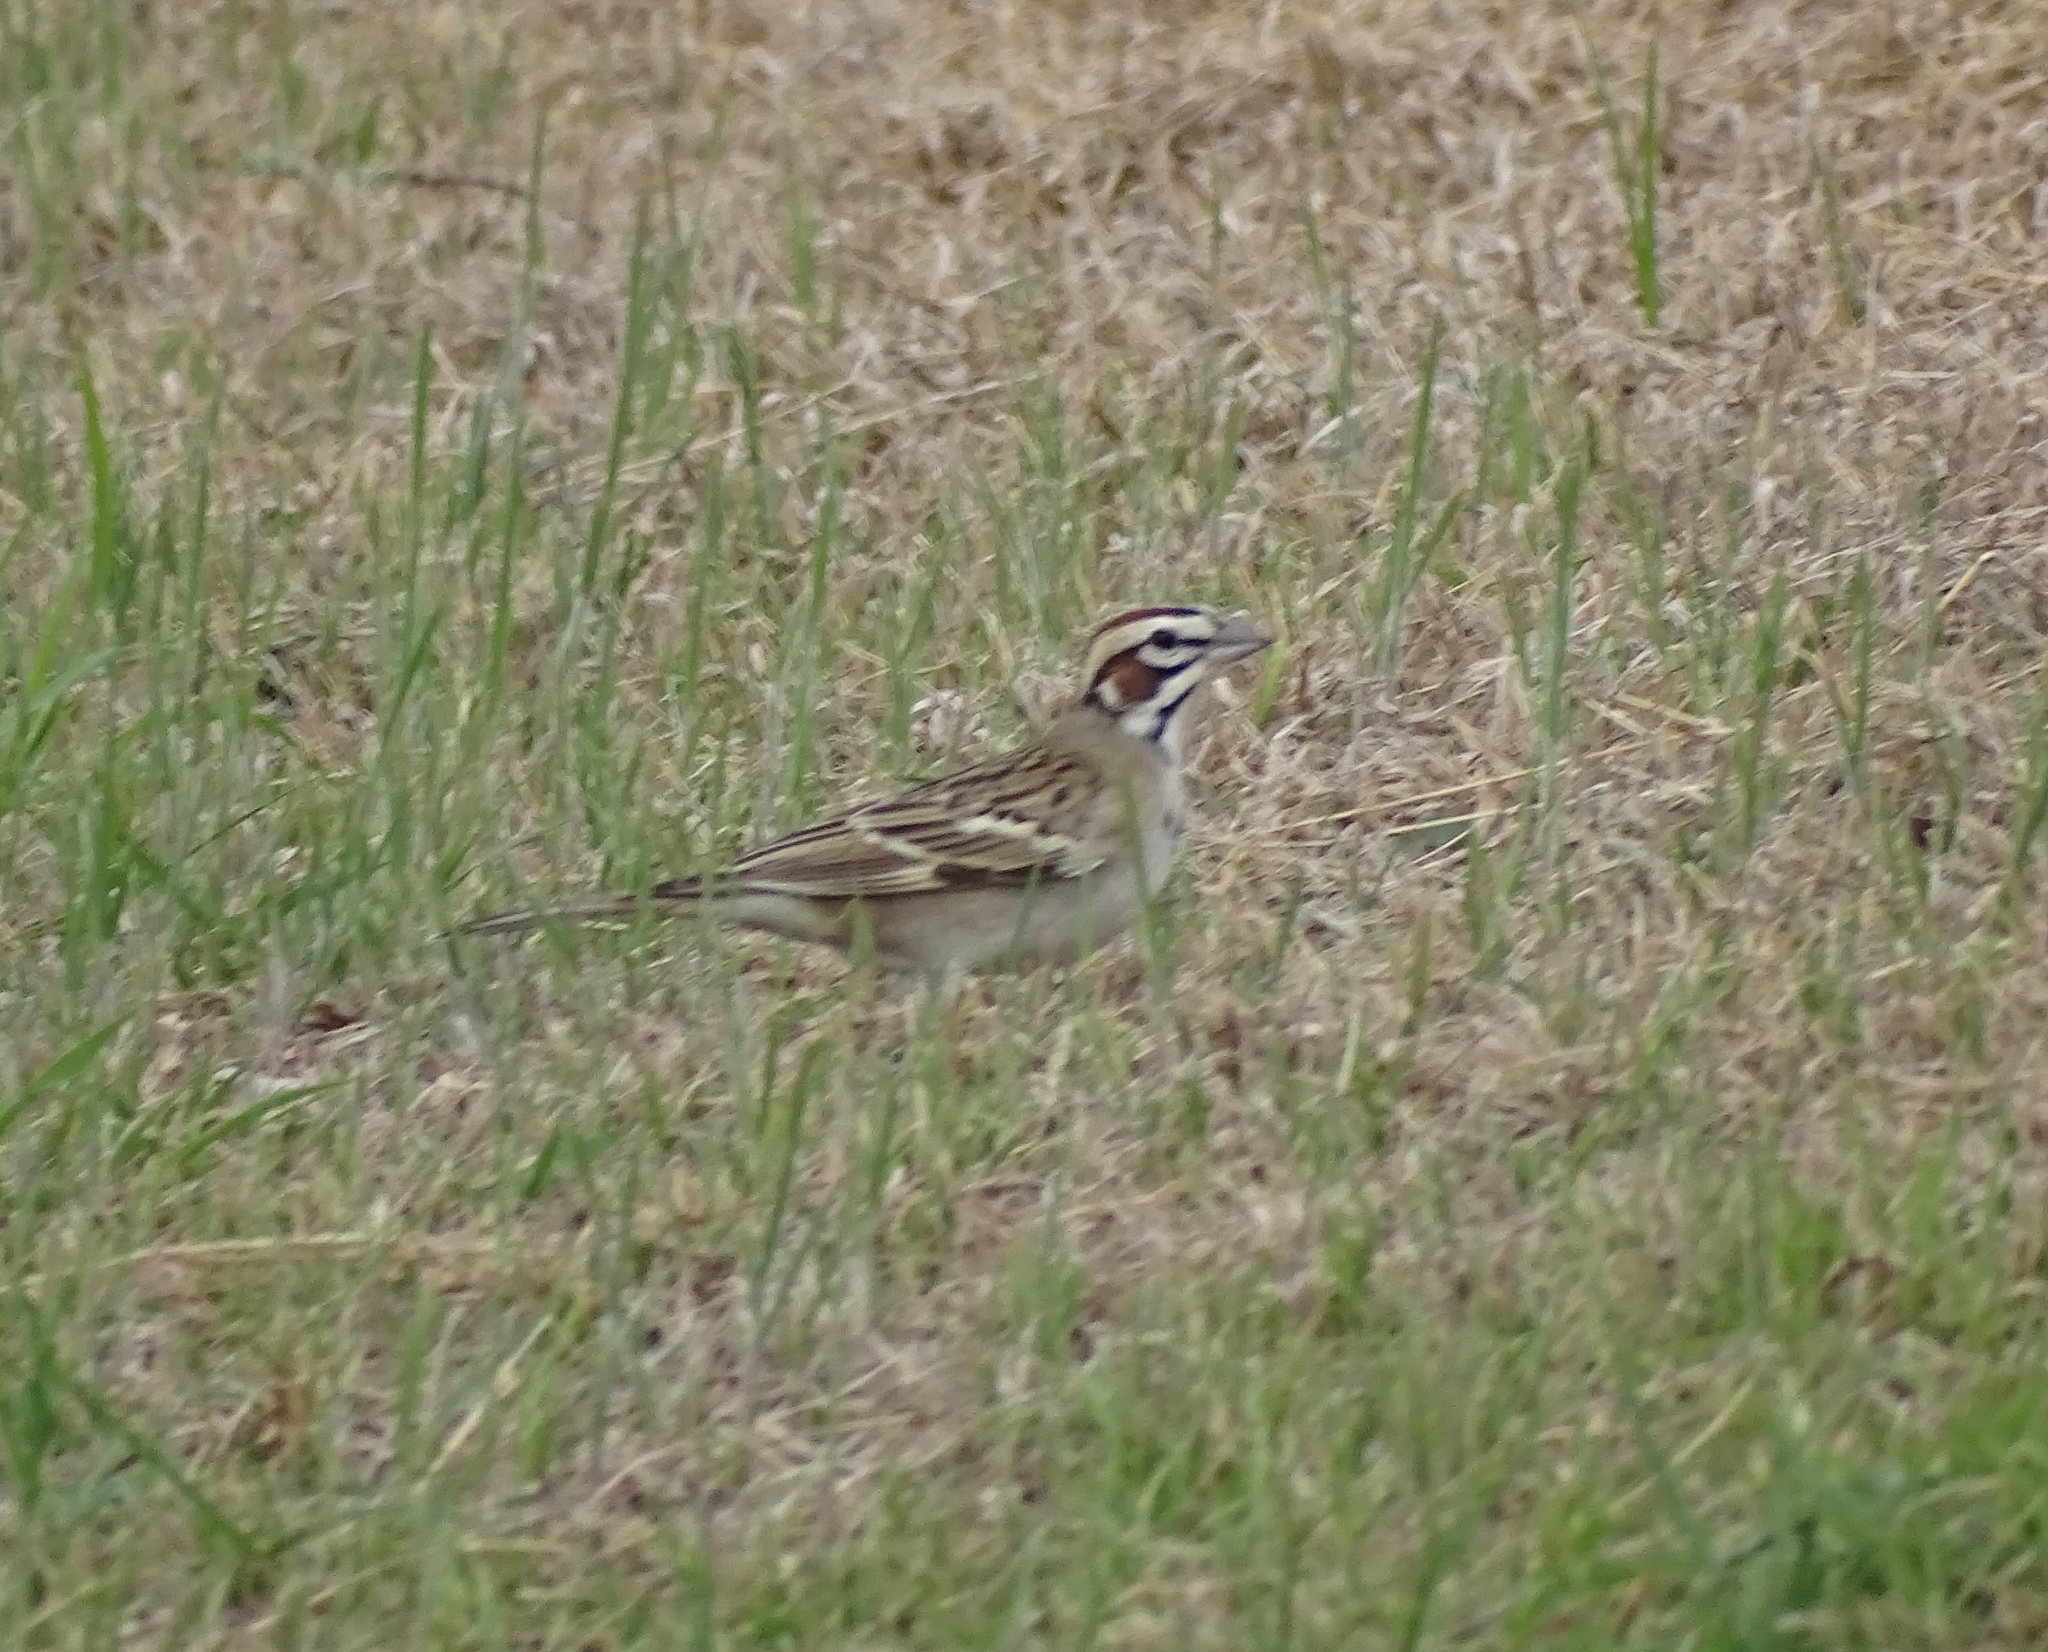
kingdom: Animalia
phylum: Chordata
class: Aves
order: Passeriformes
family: Passerellidae
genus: Chondestes
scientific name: Chondestes grammacus
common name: Lark sparrow
